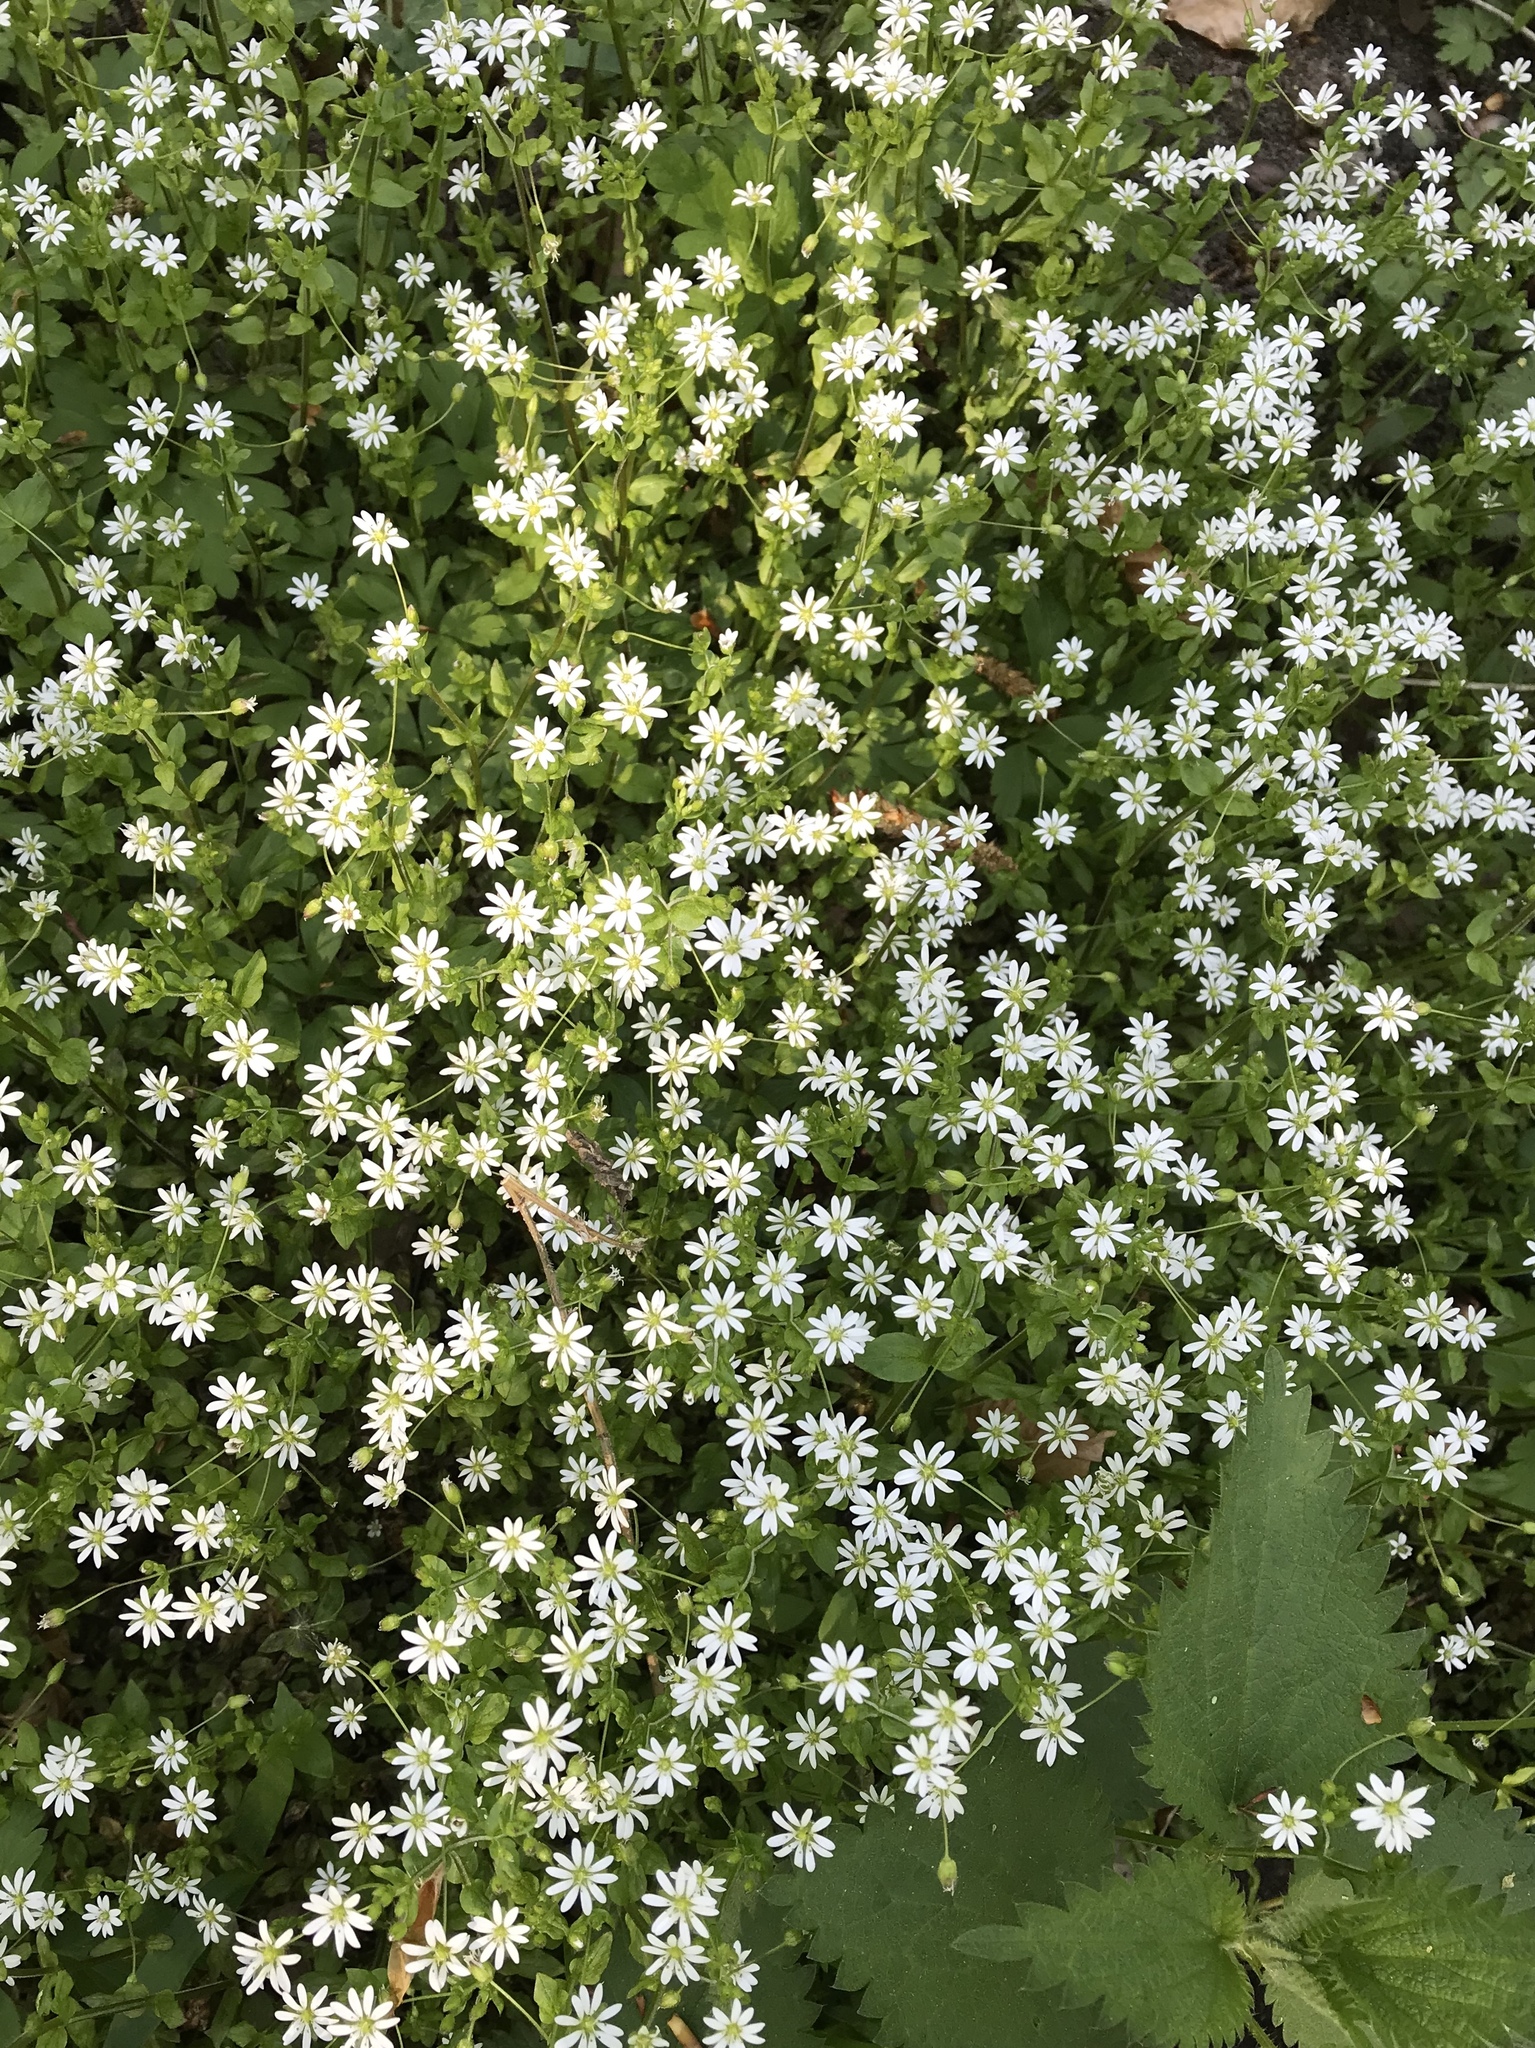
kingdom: Plantae
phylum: Tracheophyta
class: Magnoliopsida
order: Caryophyllales
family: Caryophyllaceae
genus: Stellaria
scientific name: Stellaria aquatica
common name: Water chickweed
